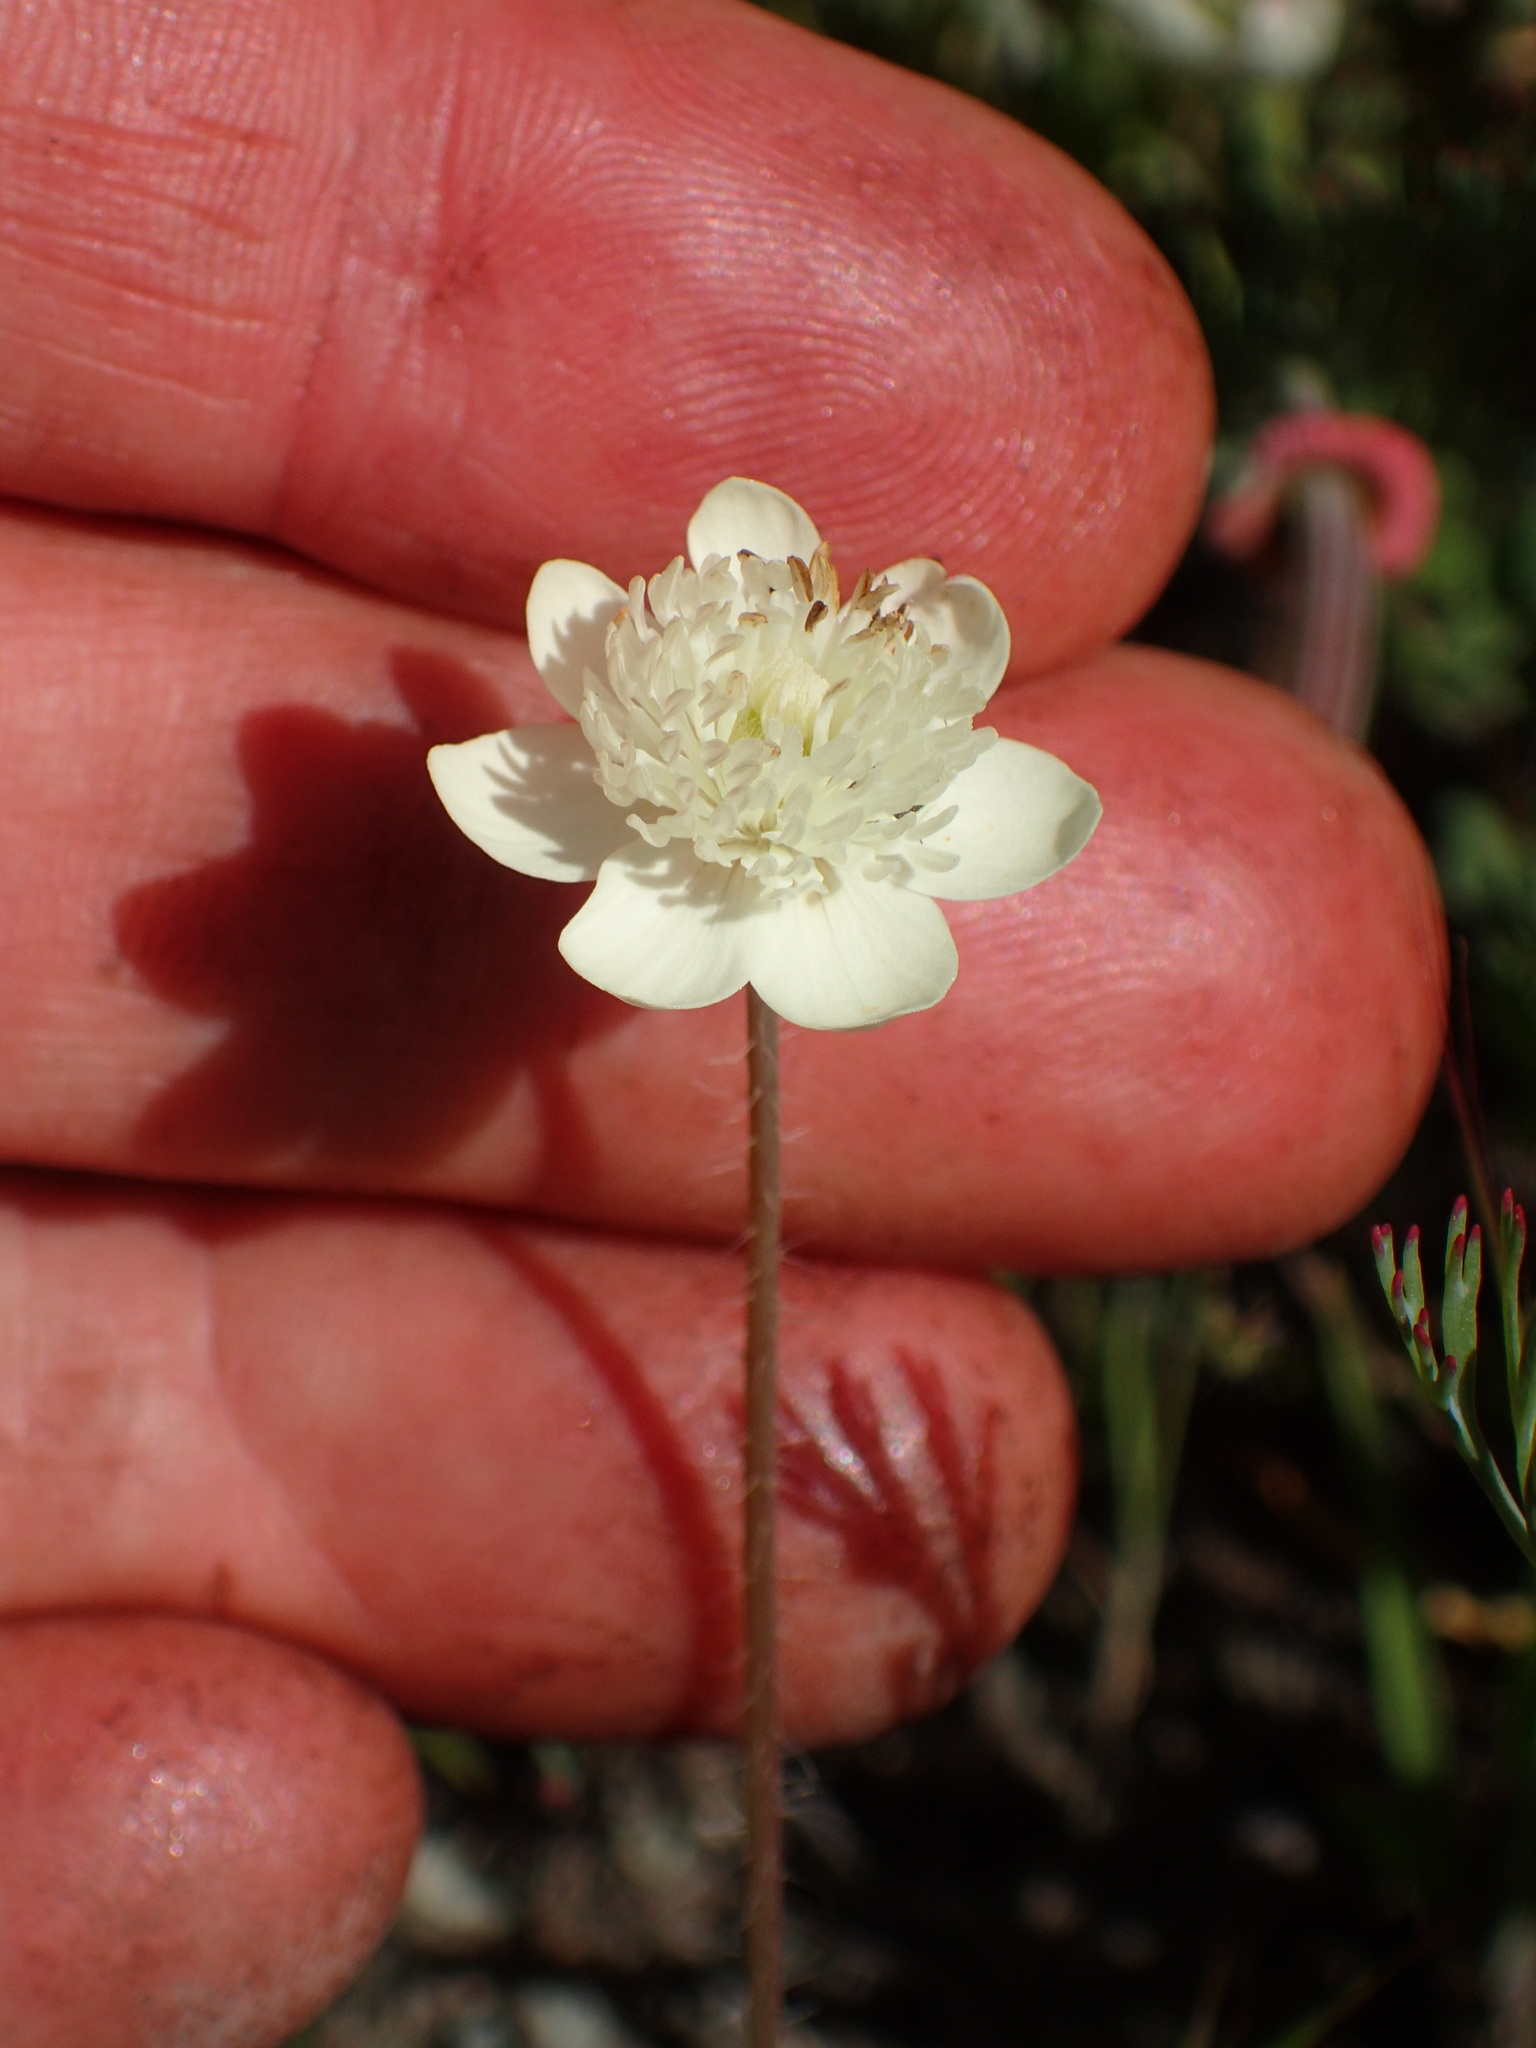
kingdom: Plantae
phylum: Tracheophyta
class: Magnoliopsida
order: Ranunculales
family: Papaveraceae
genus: Platystemon
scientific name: Platystemon californicus
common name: Cream-cups
